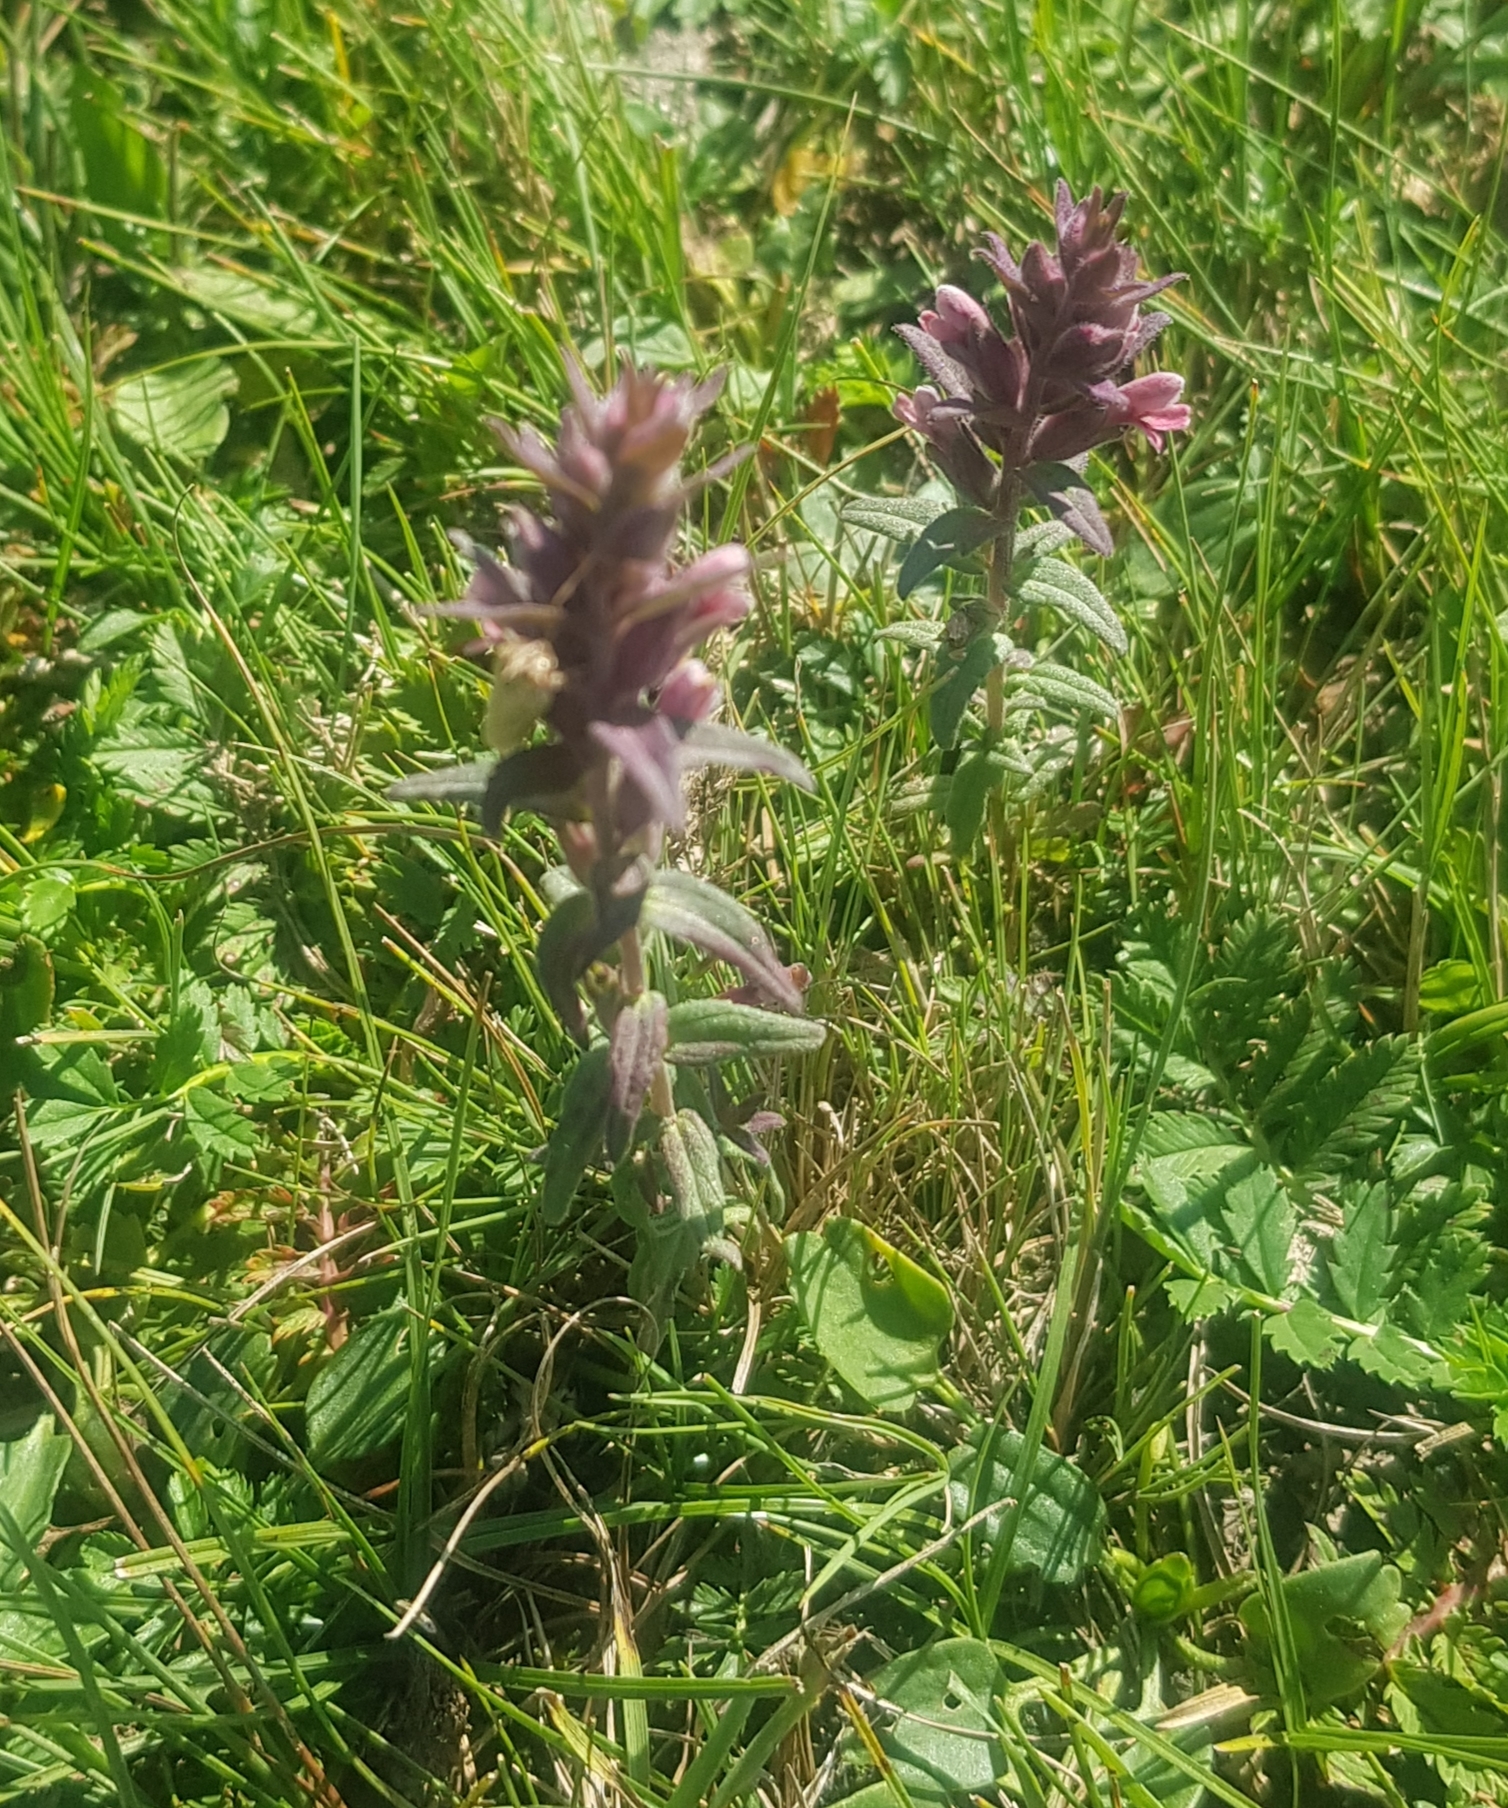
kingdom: Plantae
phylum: Tracheophyta
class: Magnoliopsida
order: Lamiales
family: Orobanchaceae
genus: Odontites
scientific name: Odontites vulgaris
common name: Broomrape
